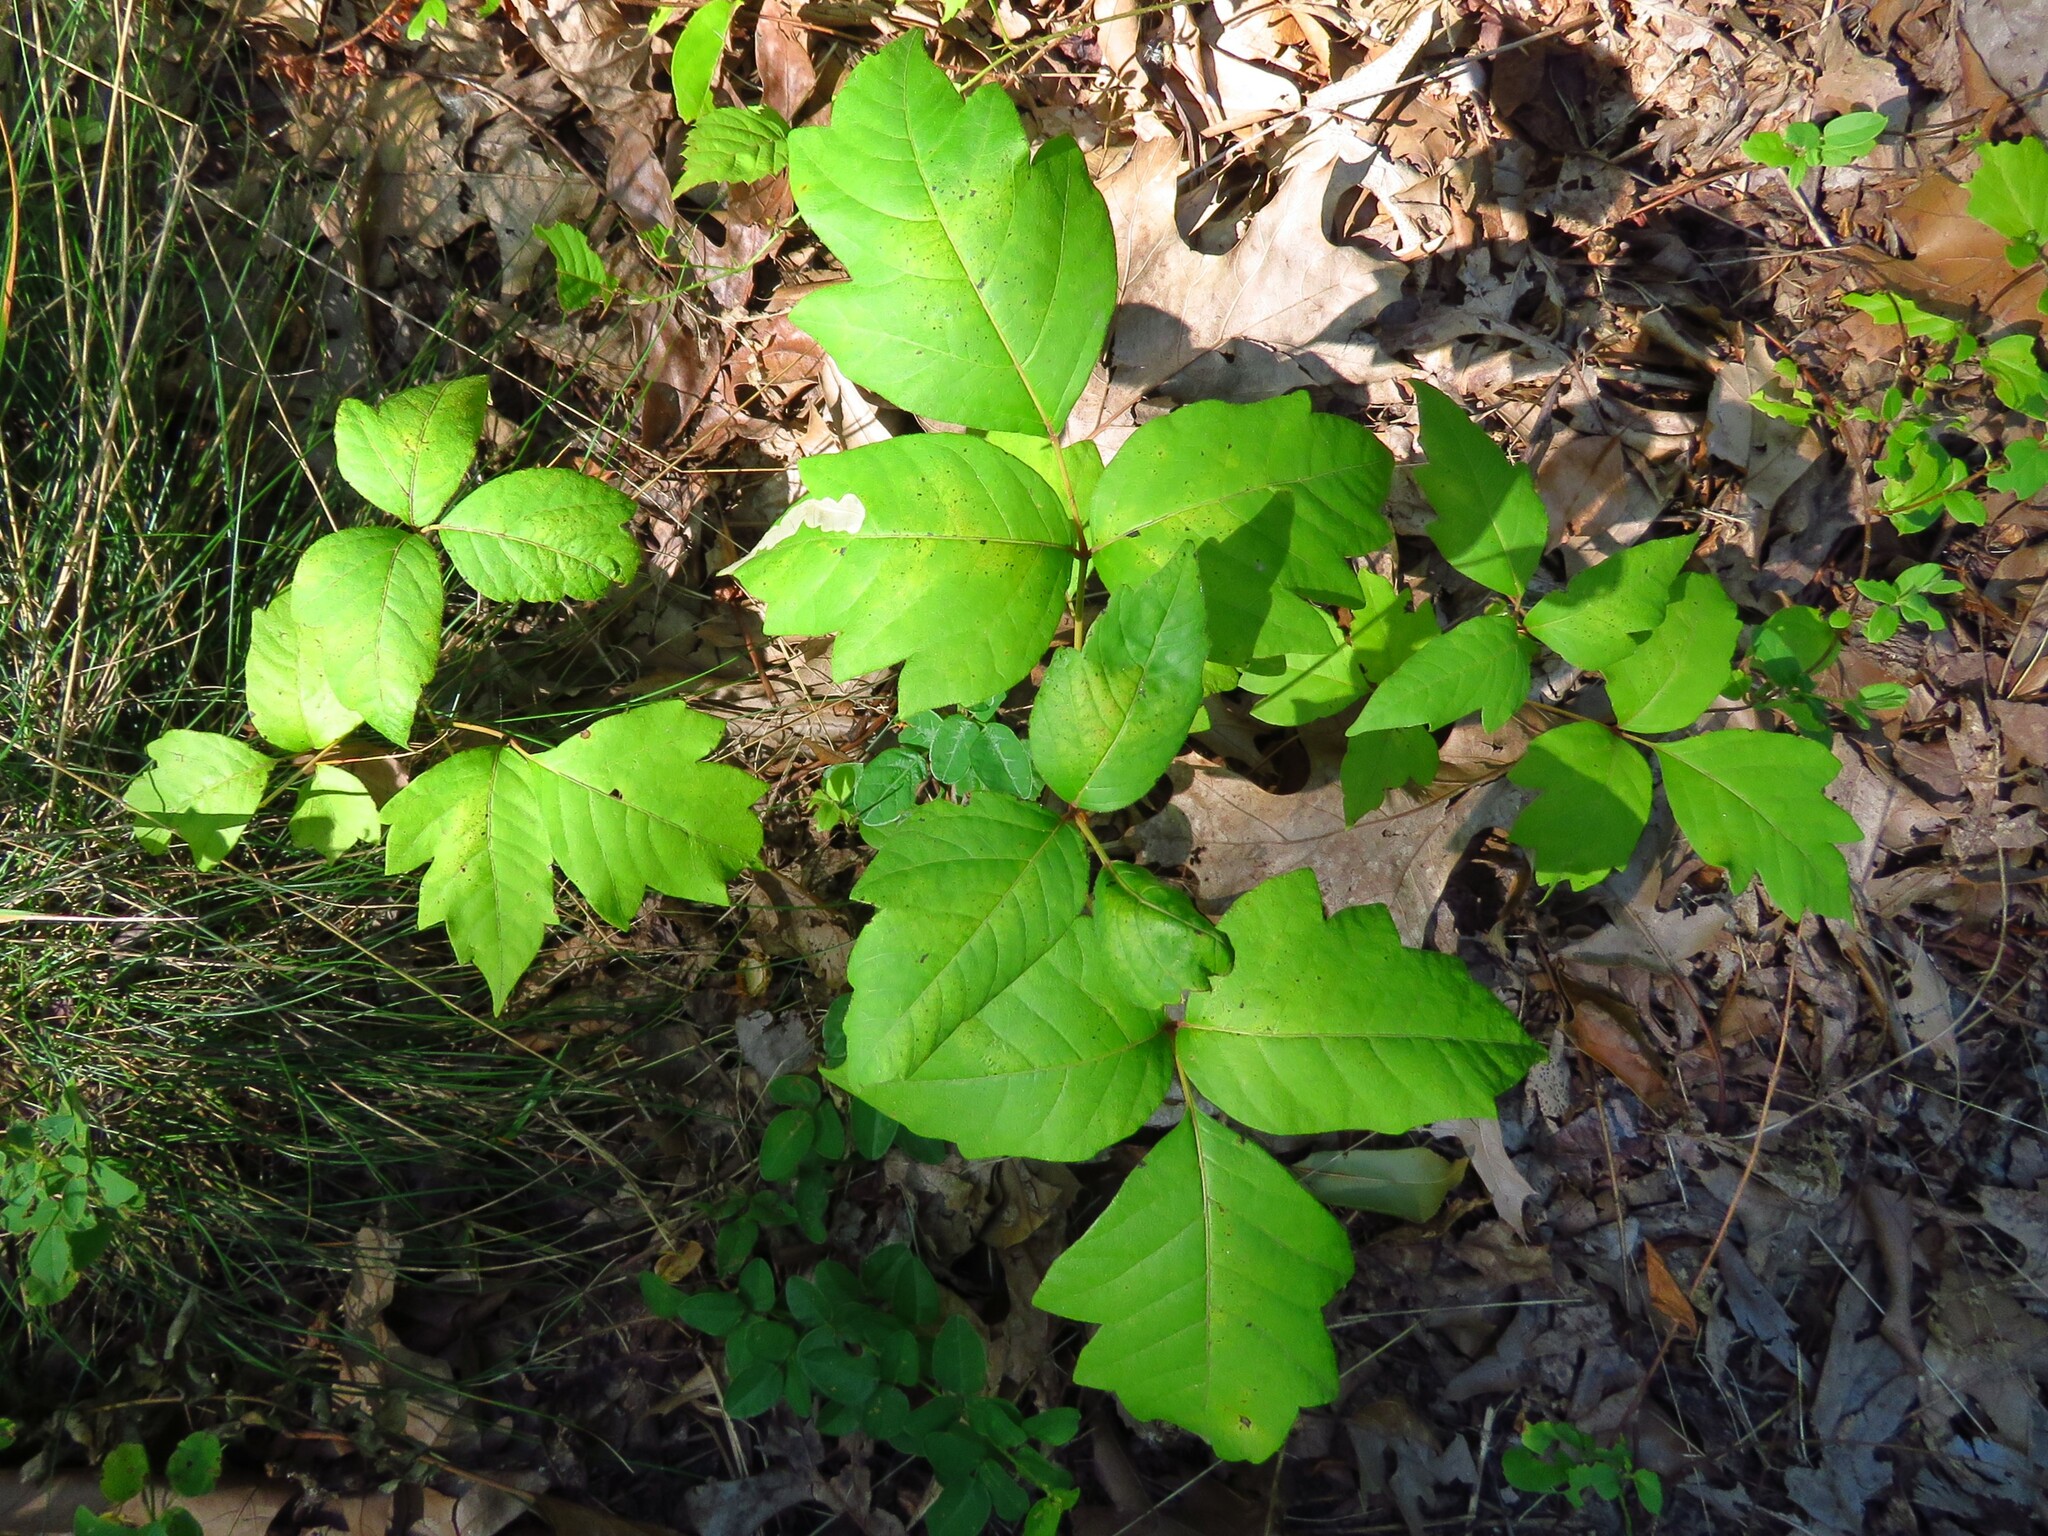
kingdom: Plantae
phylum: Tracheophyta
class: Magnoliopsida
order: Sapindales
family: Anacardiaceae
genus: Toxicodendron
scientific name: Toxicodendron radicans
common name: Poison ivy
